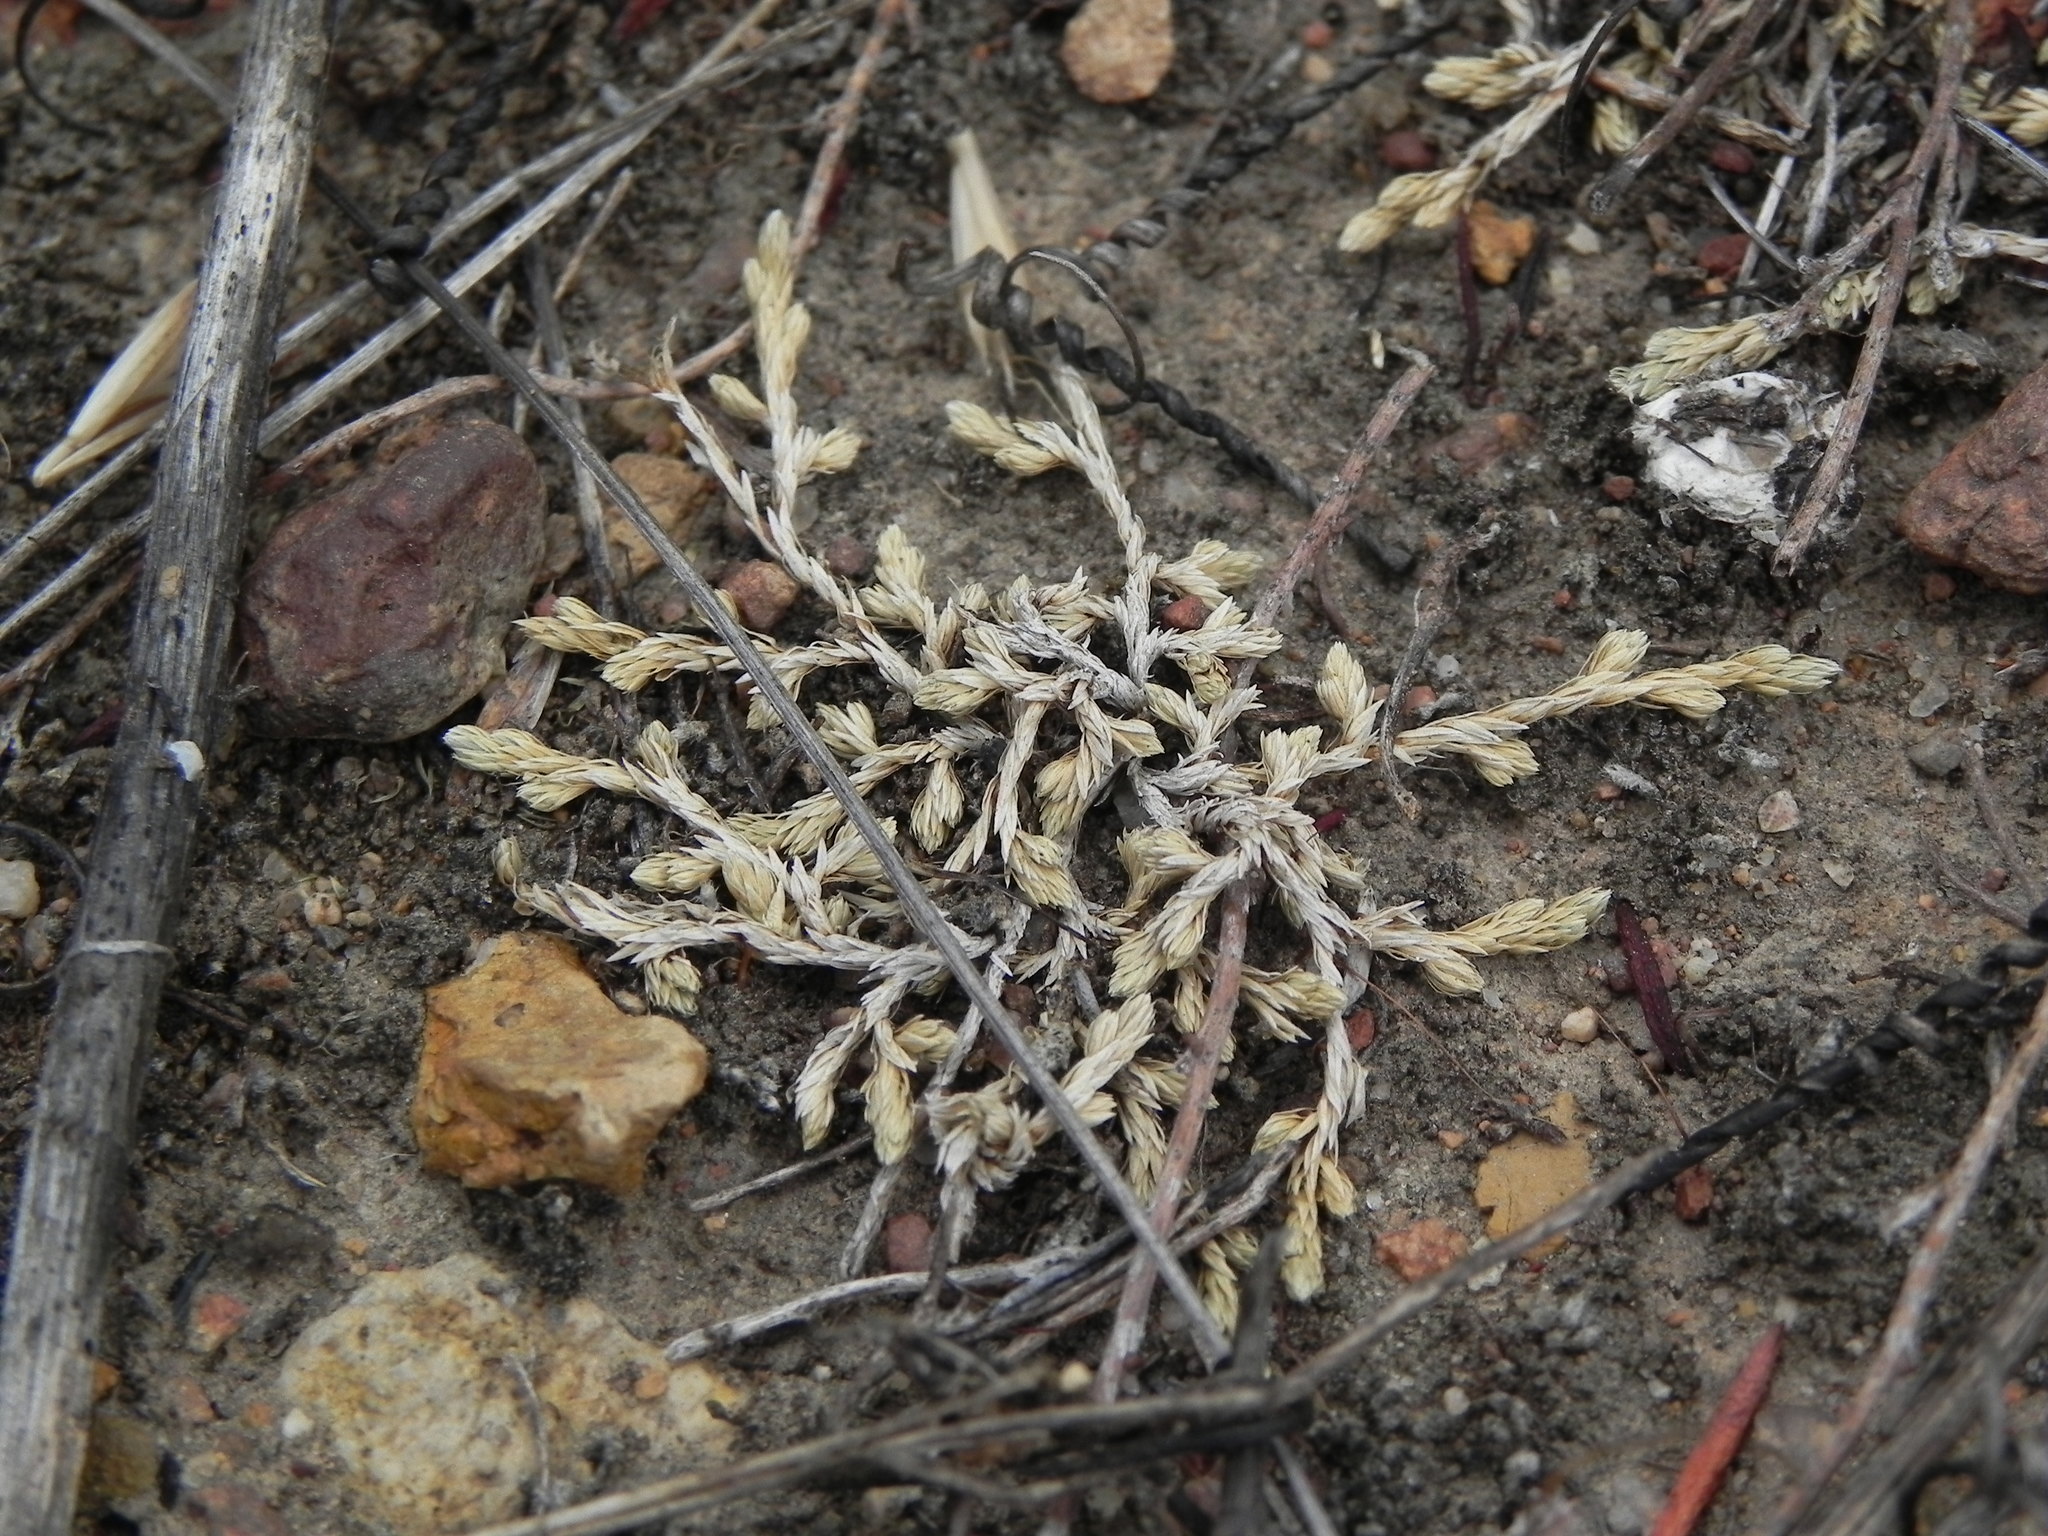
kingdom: Plantae
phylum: Tracheophyta
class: Lycopodiopsida
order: Selaginellales
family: Selaginellaceae
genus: Selaginella
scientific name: Selaginella cinerascens
